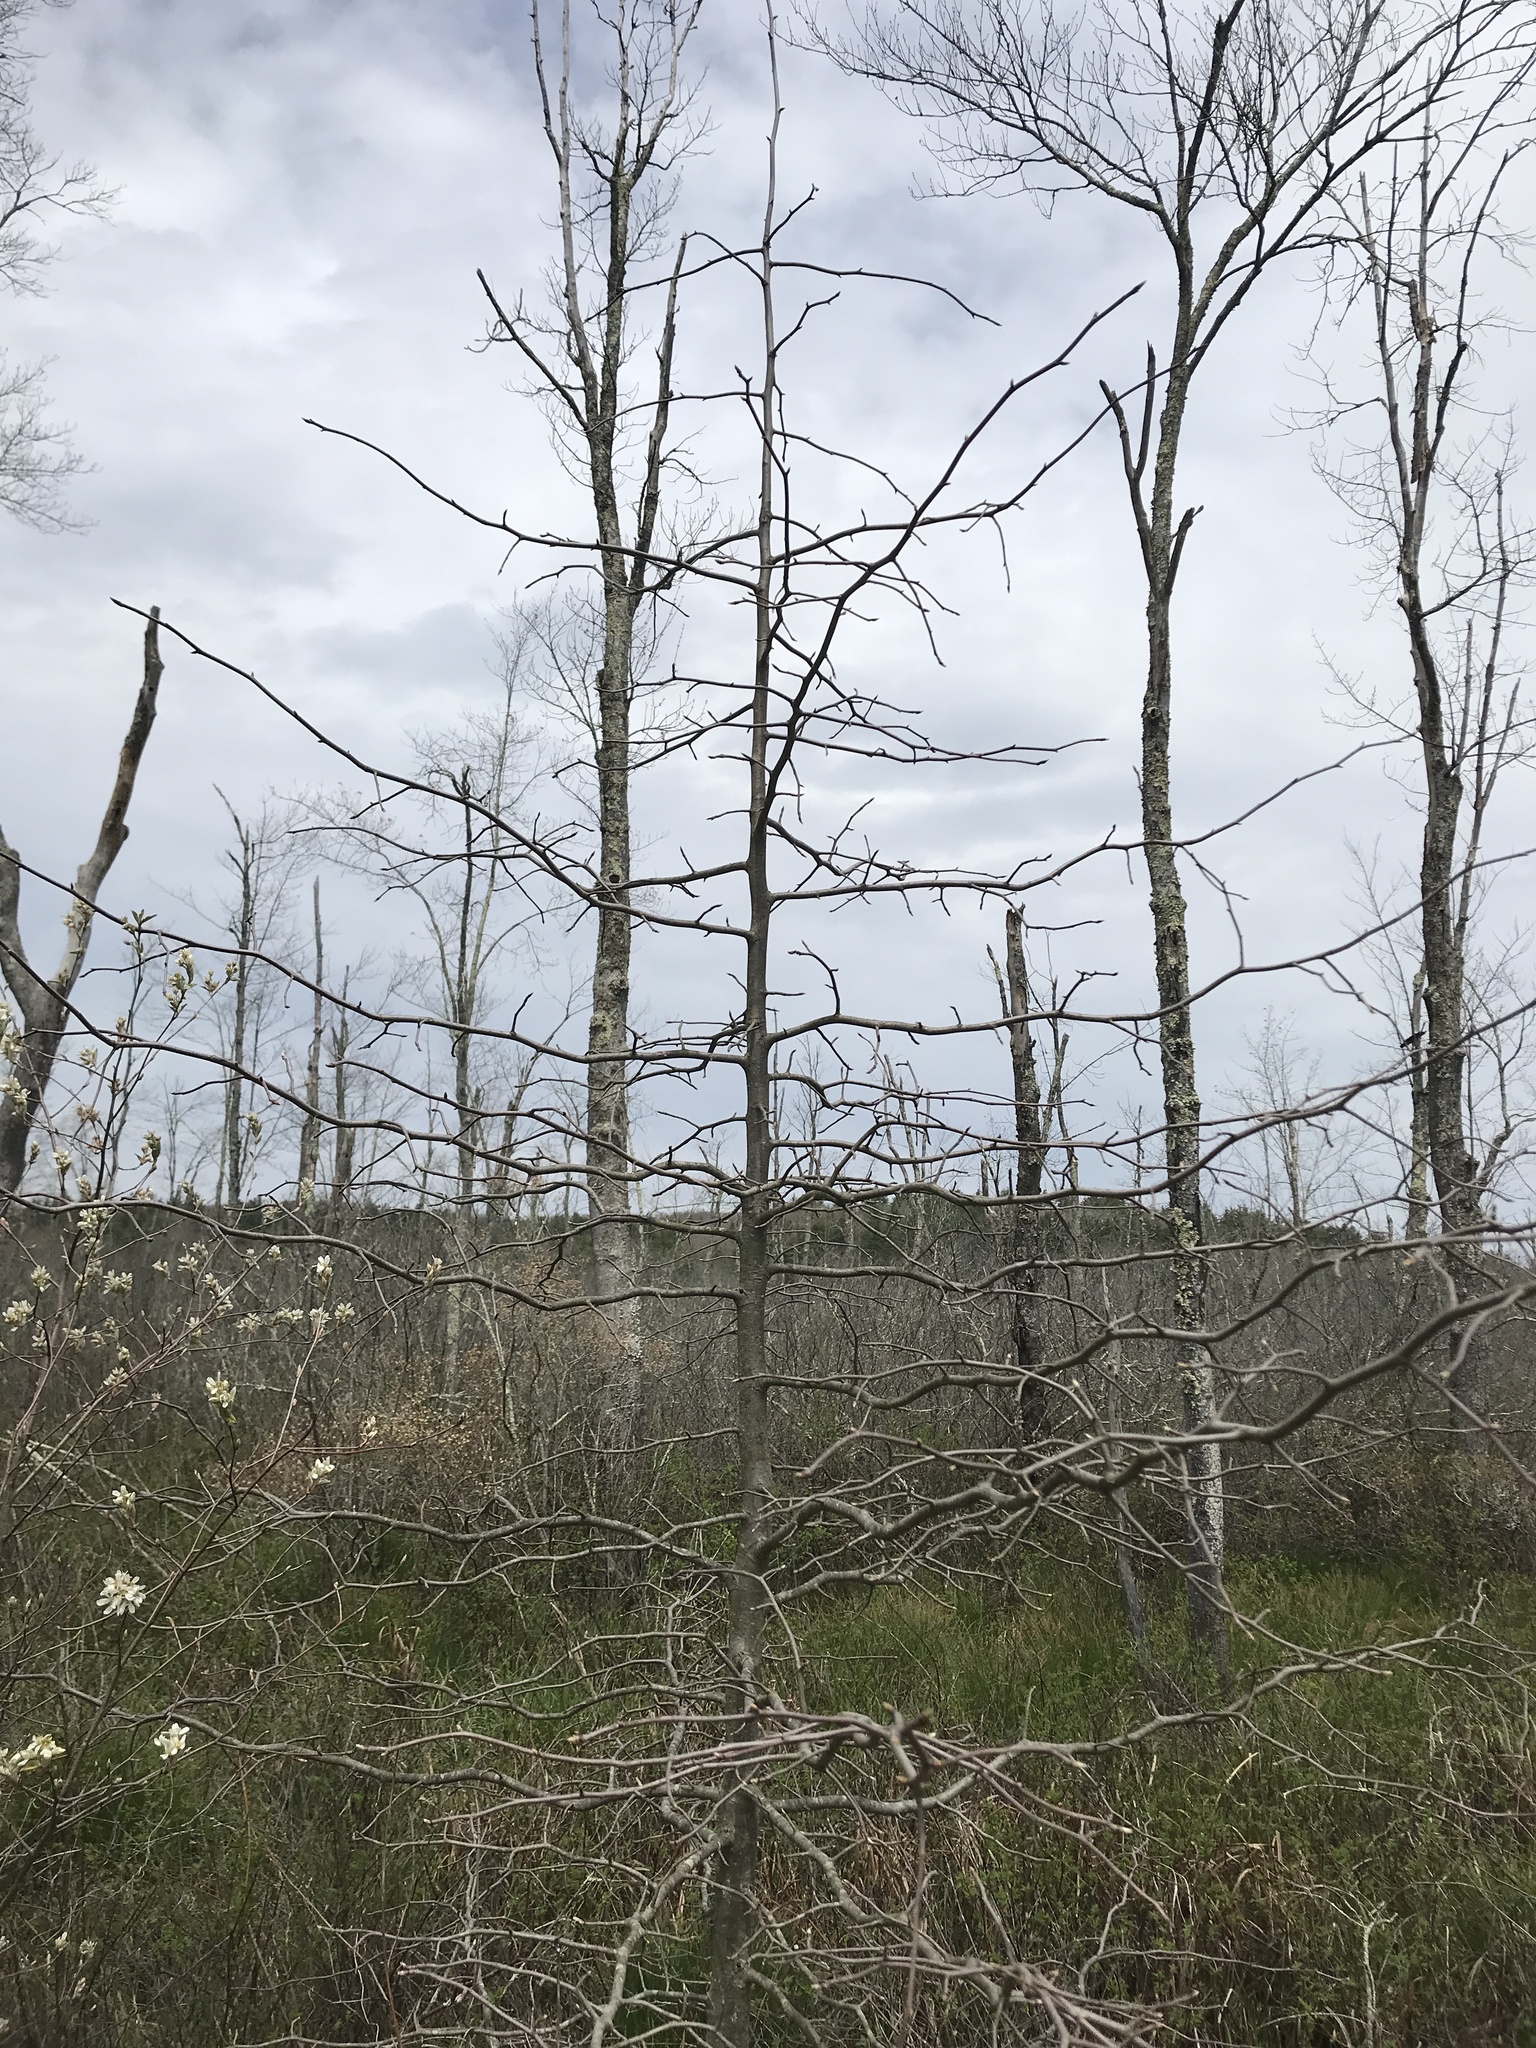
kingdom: Plantae
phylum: Tracheophyta
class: Magnoliopsida
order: Cornales
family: Nyssaceae
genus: Nyssa
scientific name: Nyssa sylvatica
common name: Black tupelo
